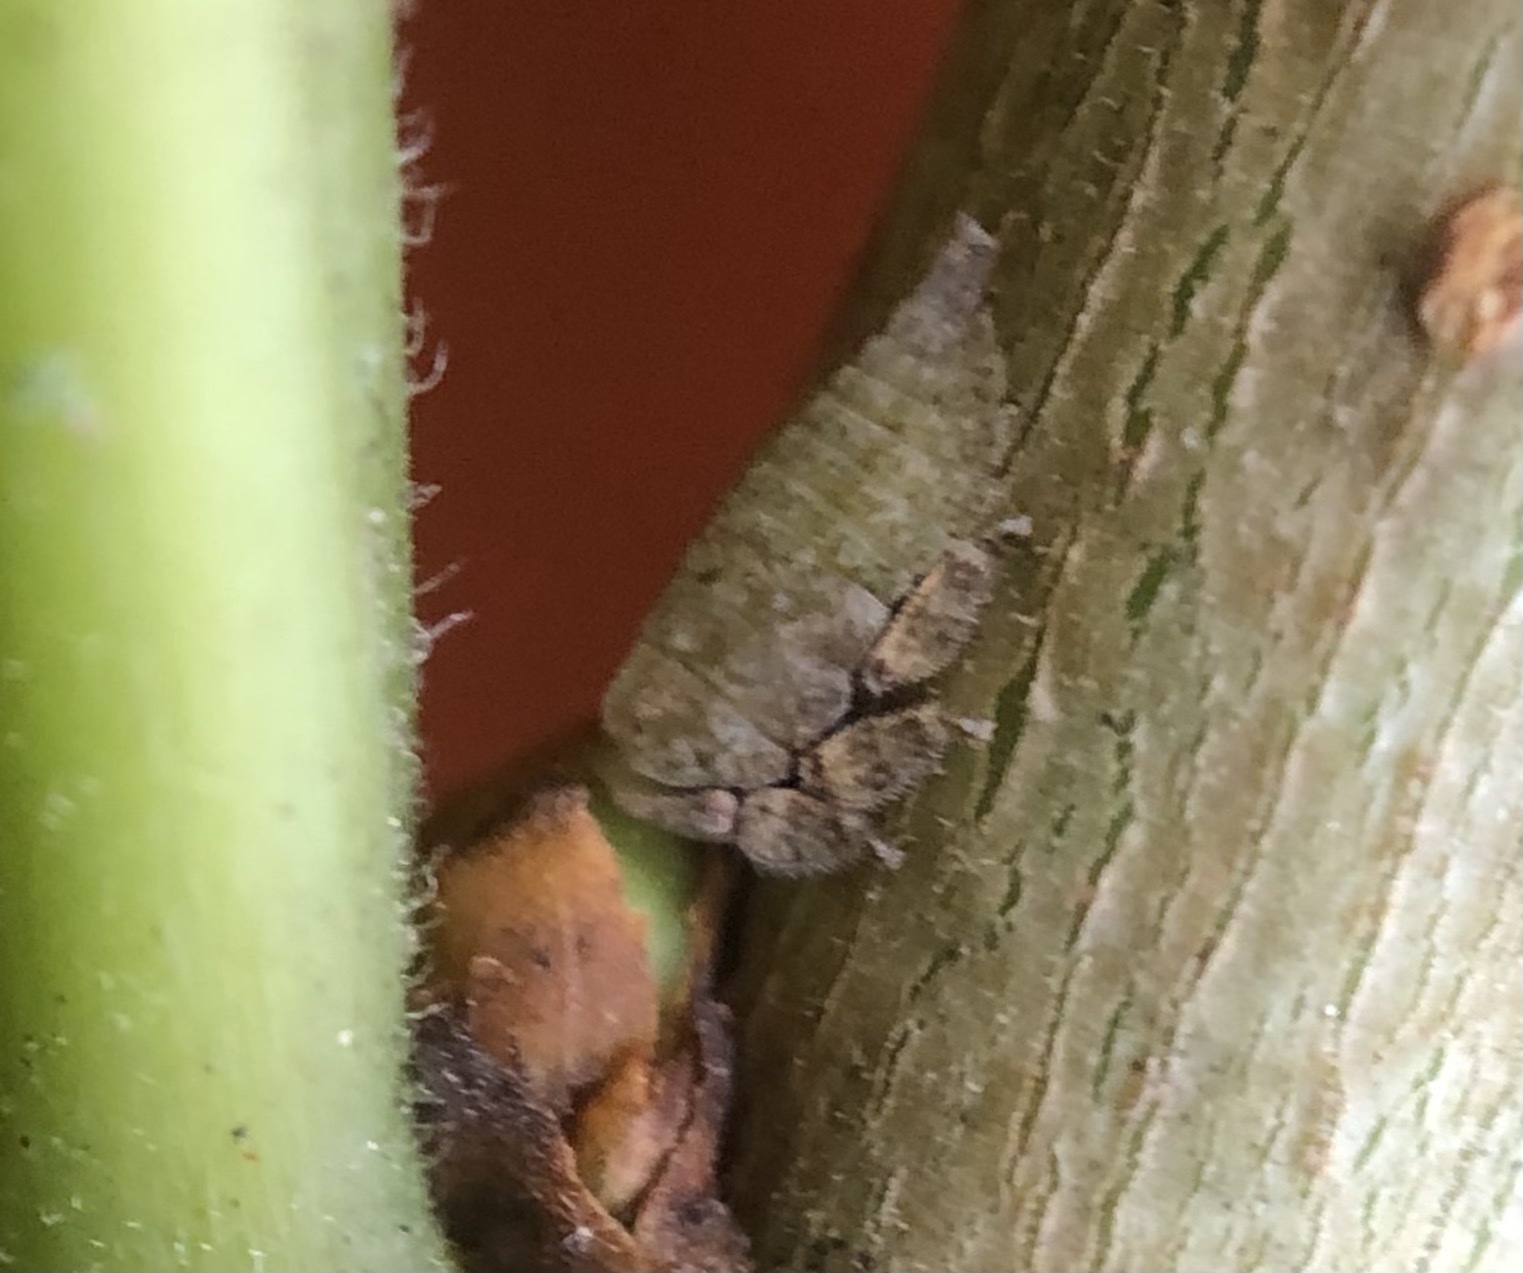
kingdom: Animalia
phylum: Arthropoda
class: Insecta
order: Hemiptera
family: Membracidae
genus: Hebetica
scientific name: Hebetica
